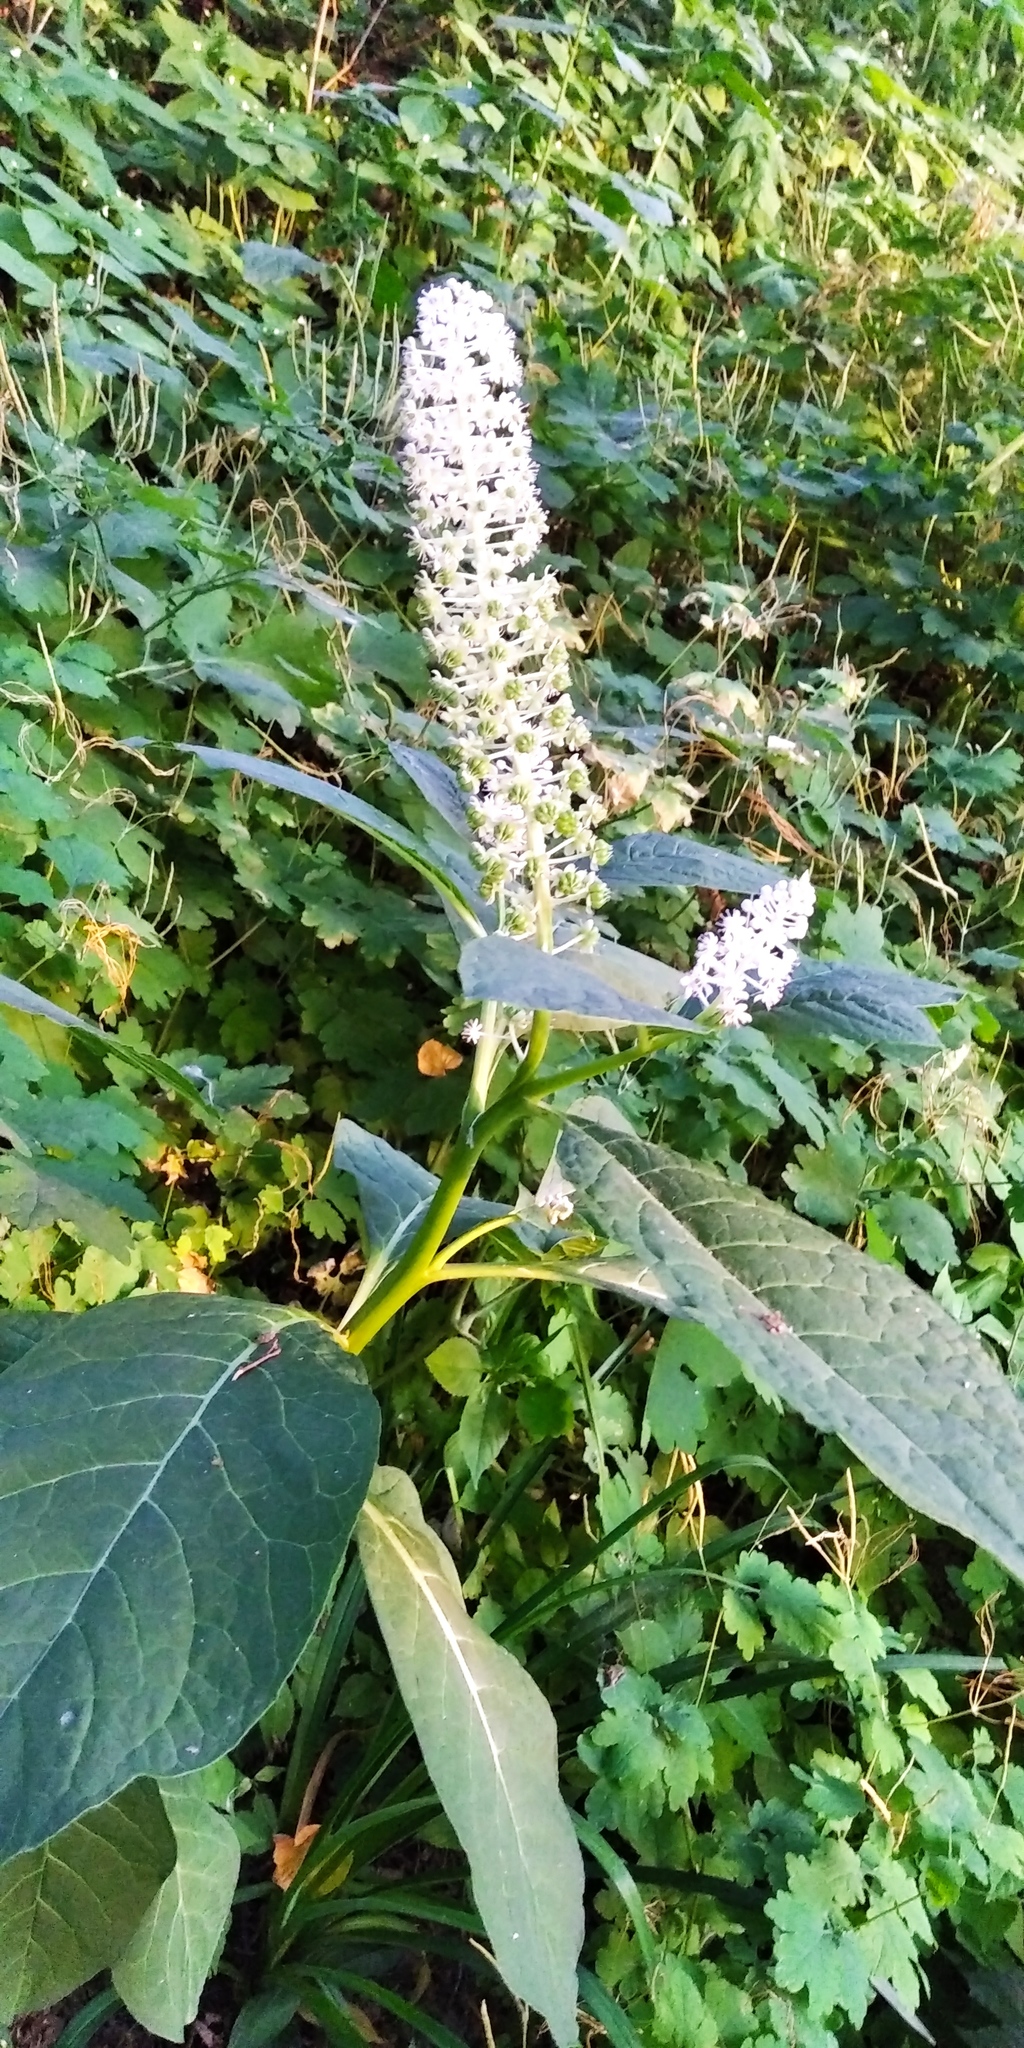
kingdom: Plantae
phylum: Tracheophyta
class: Magnoliopsida
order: Caryophyllales
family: Phytolaccaceae
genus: Phytolacca
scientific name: Phytolacca acinosa
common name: Indian pokeweed
